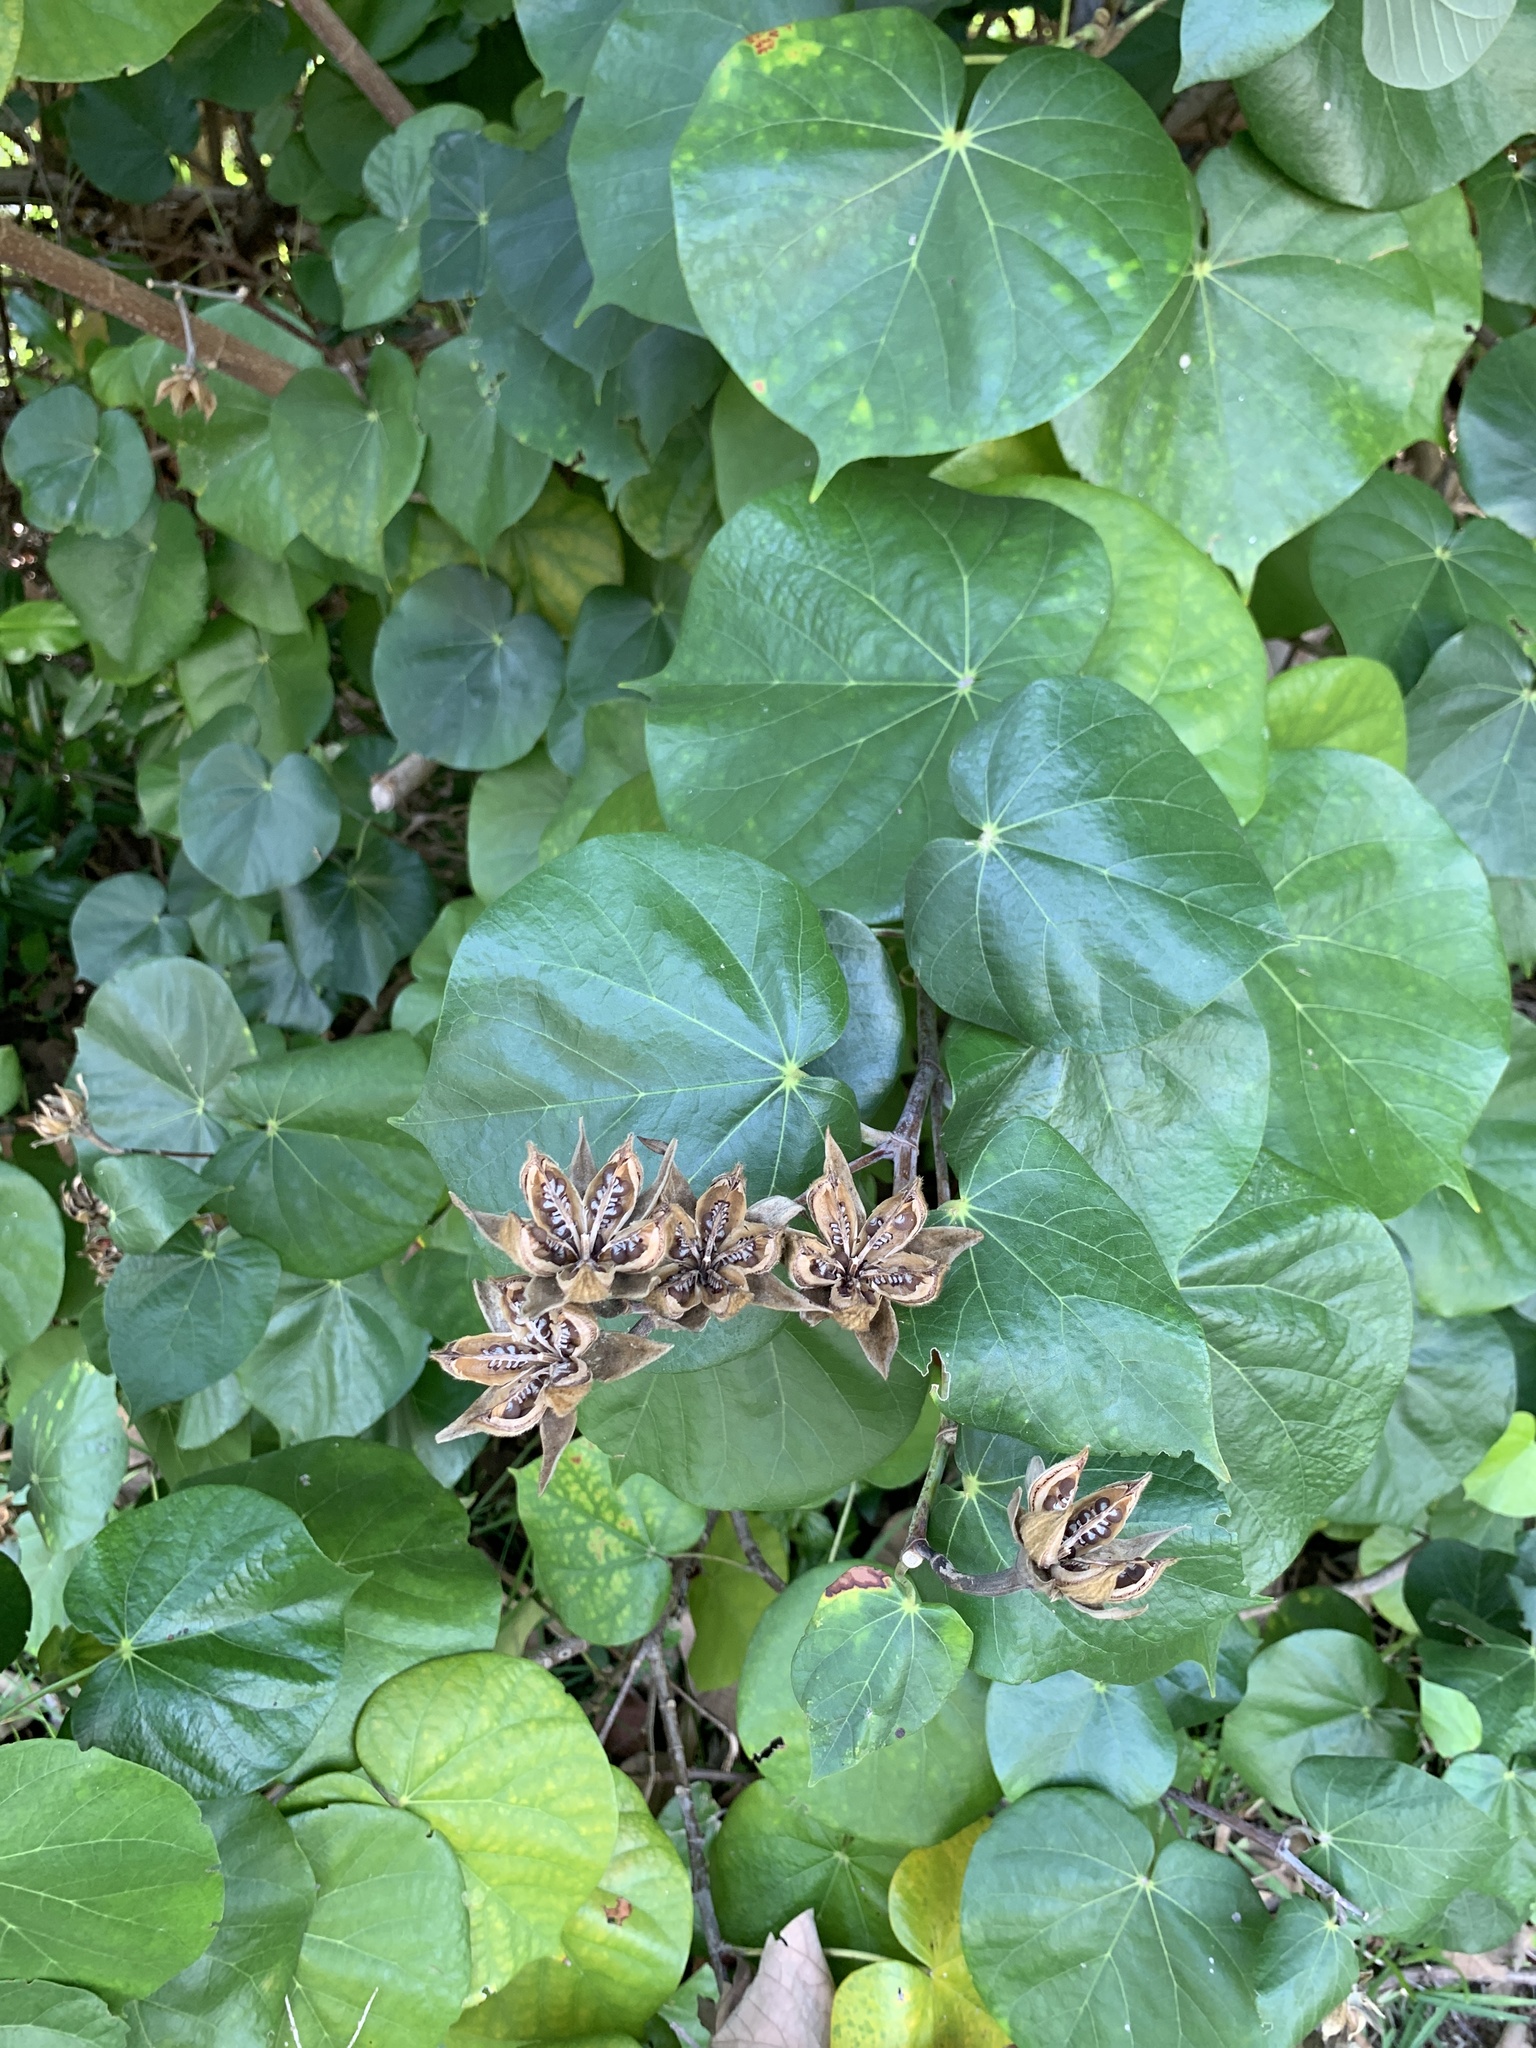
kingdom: Plantae
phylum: Tracheophyta
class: Magnoliopsida
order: Malvales
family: Malvaceae
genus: Talipariti
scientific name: Talipariti tiliaceum
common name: Sea hibiscus
